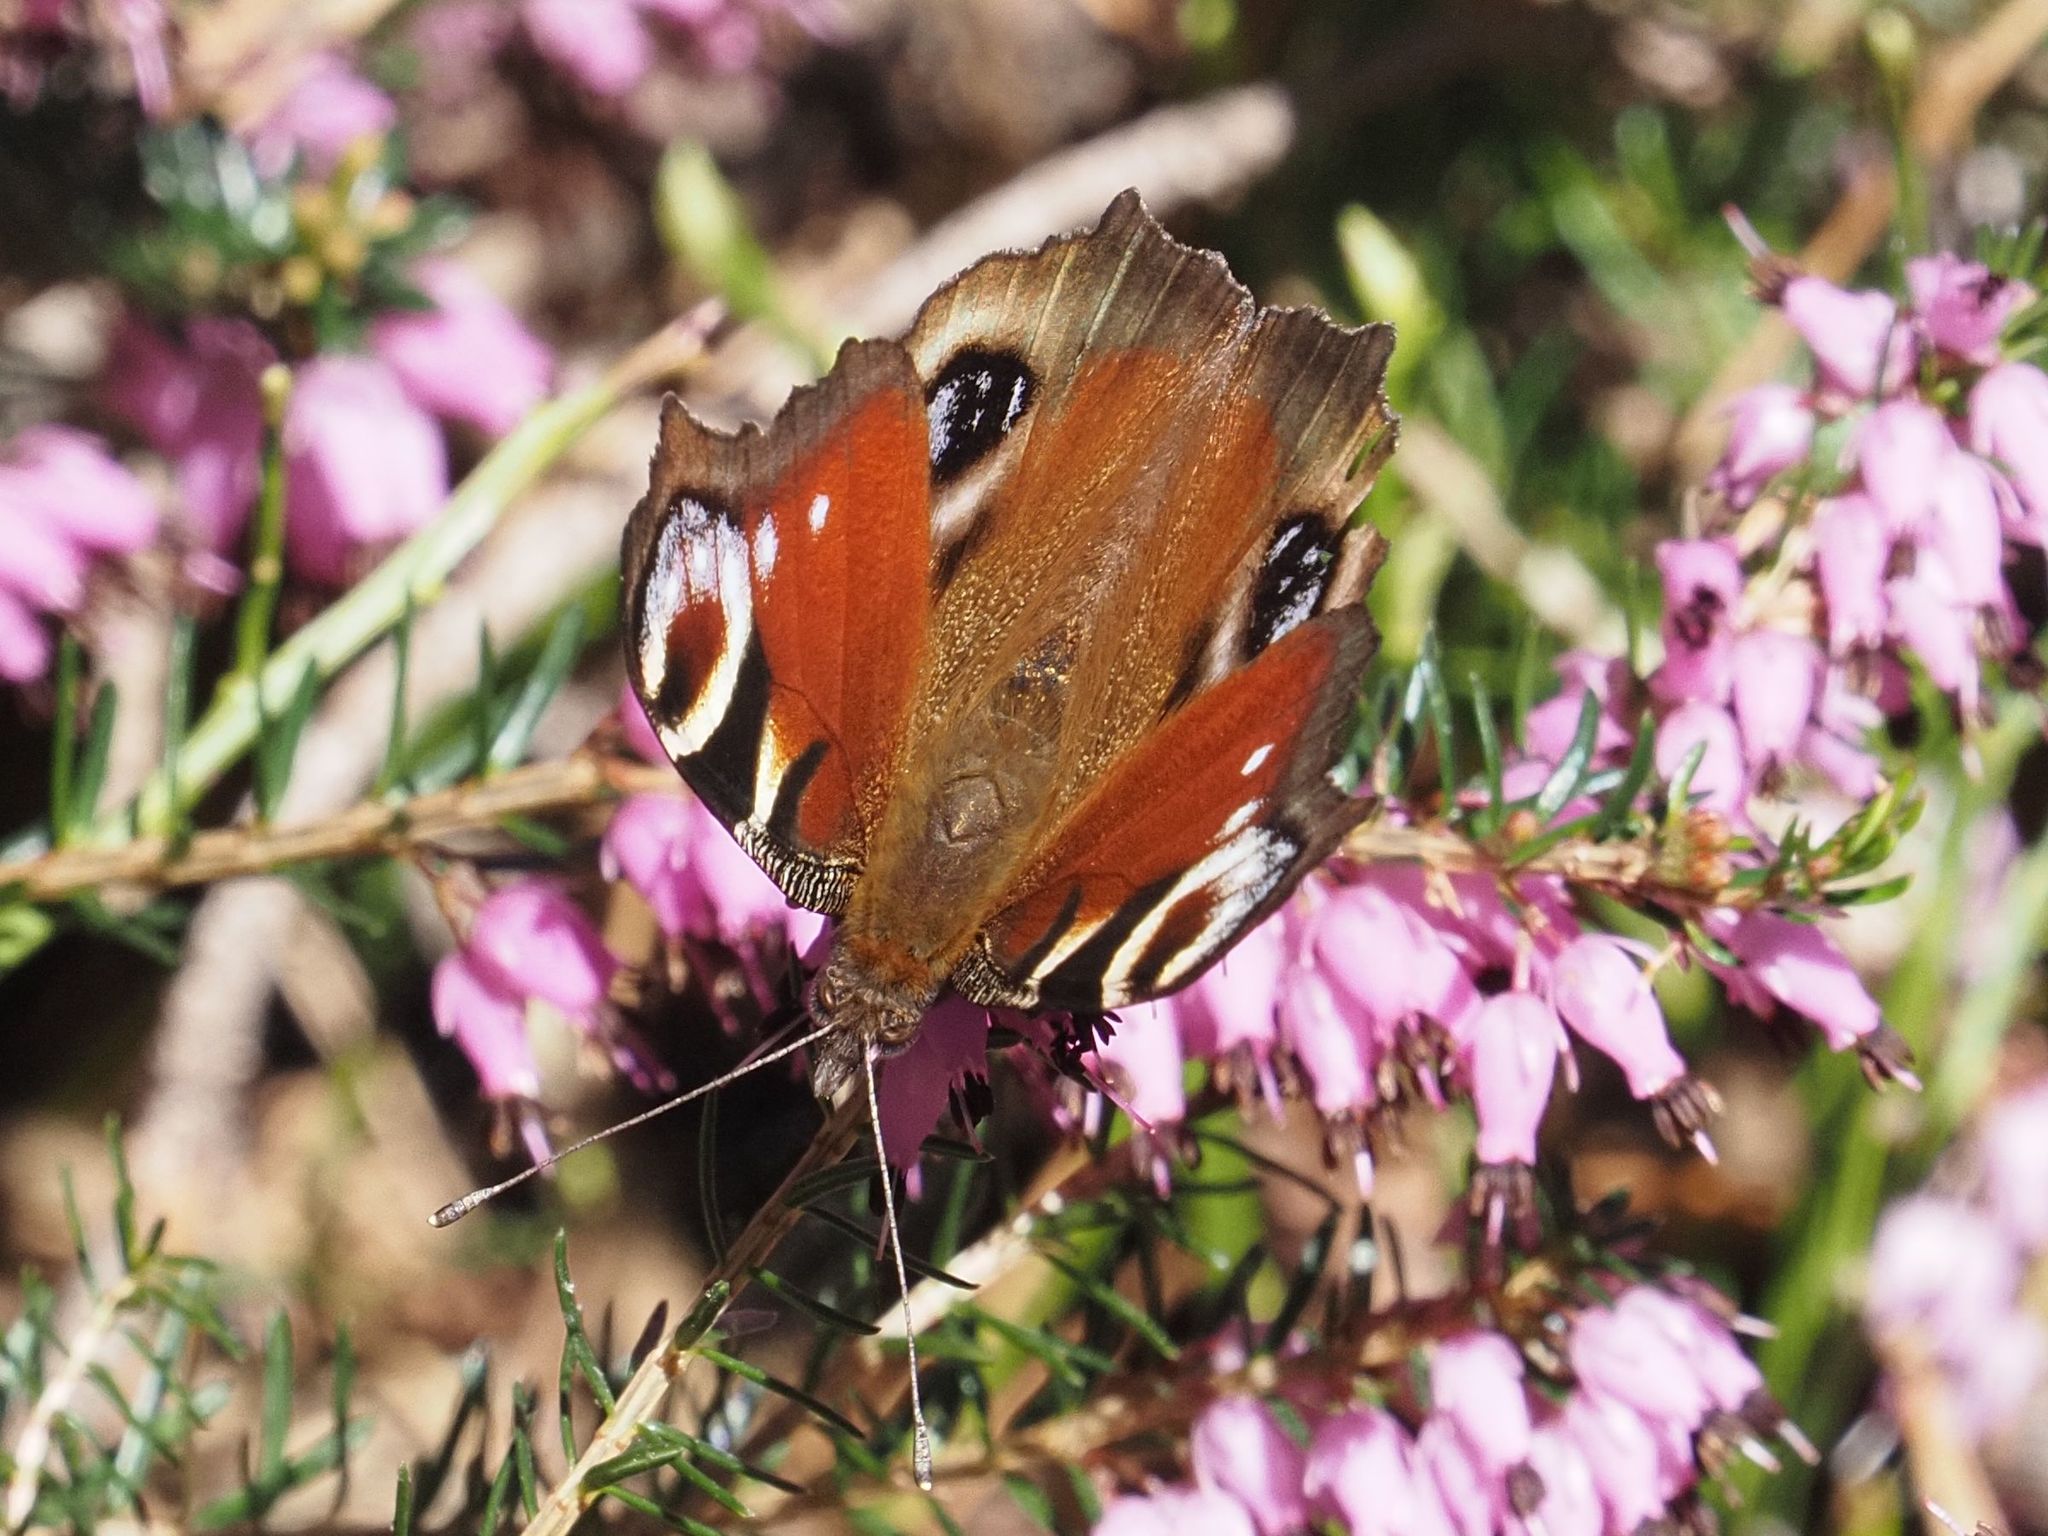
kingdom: Animalia
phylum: Arthropoda
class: Insecta
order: Lepidoptera
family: Nymphalidae
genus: Aglais
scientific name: Aglais io
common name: Peacock
